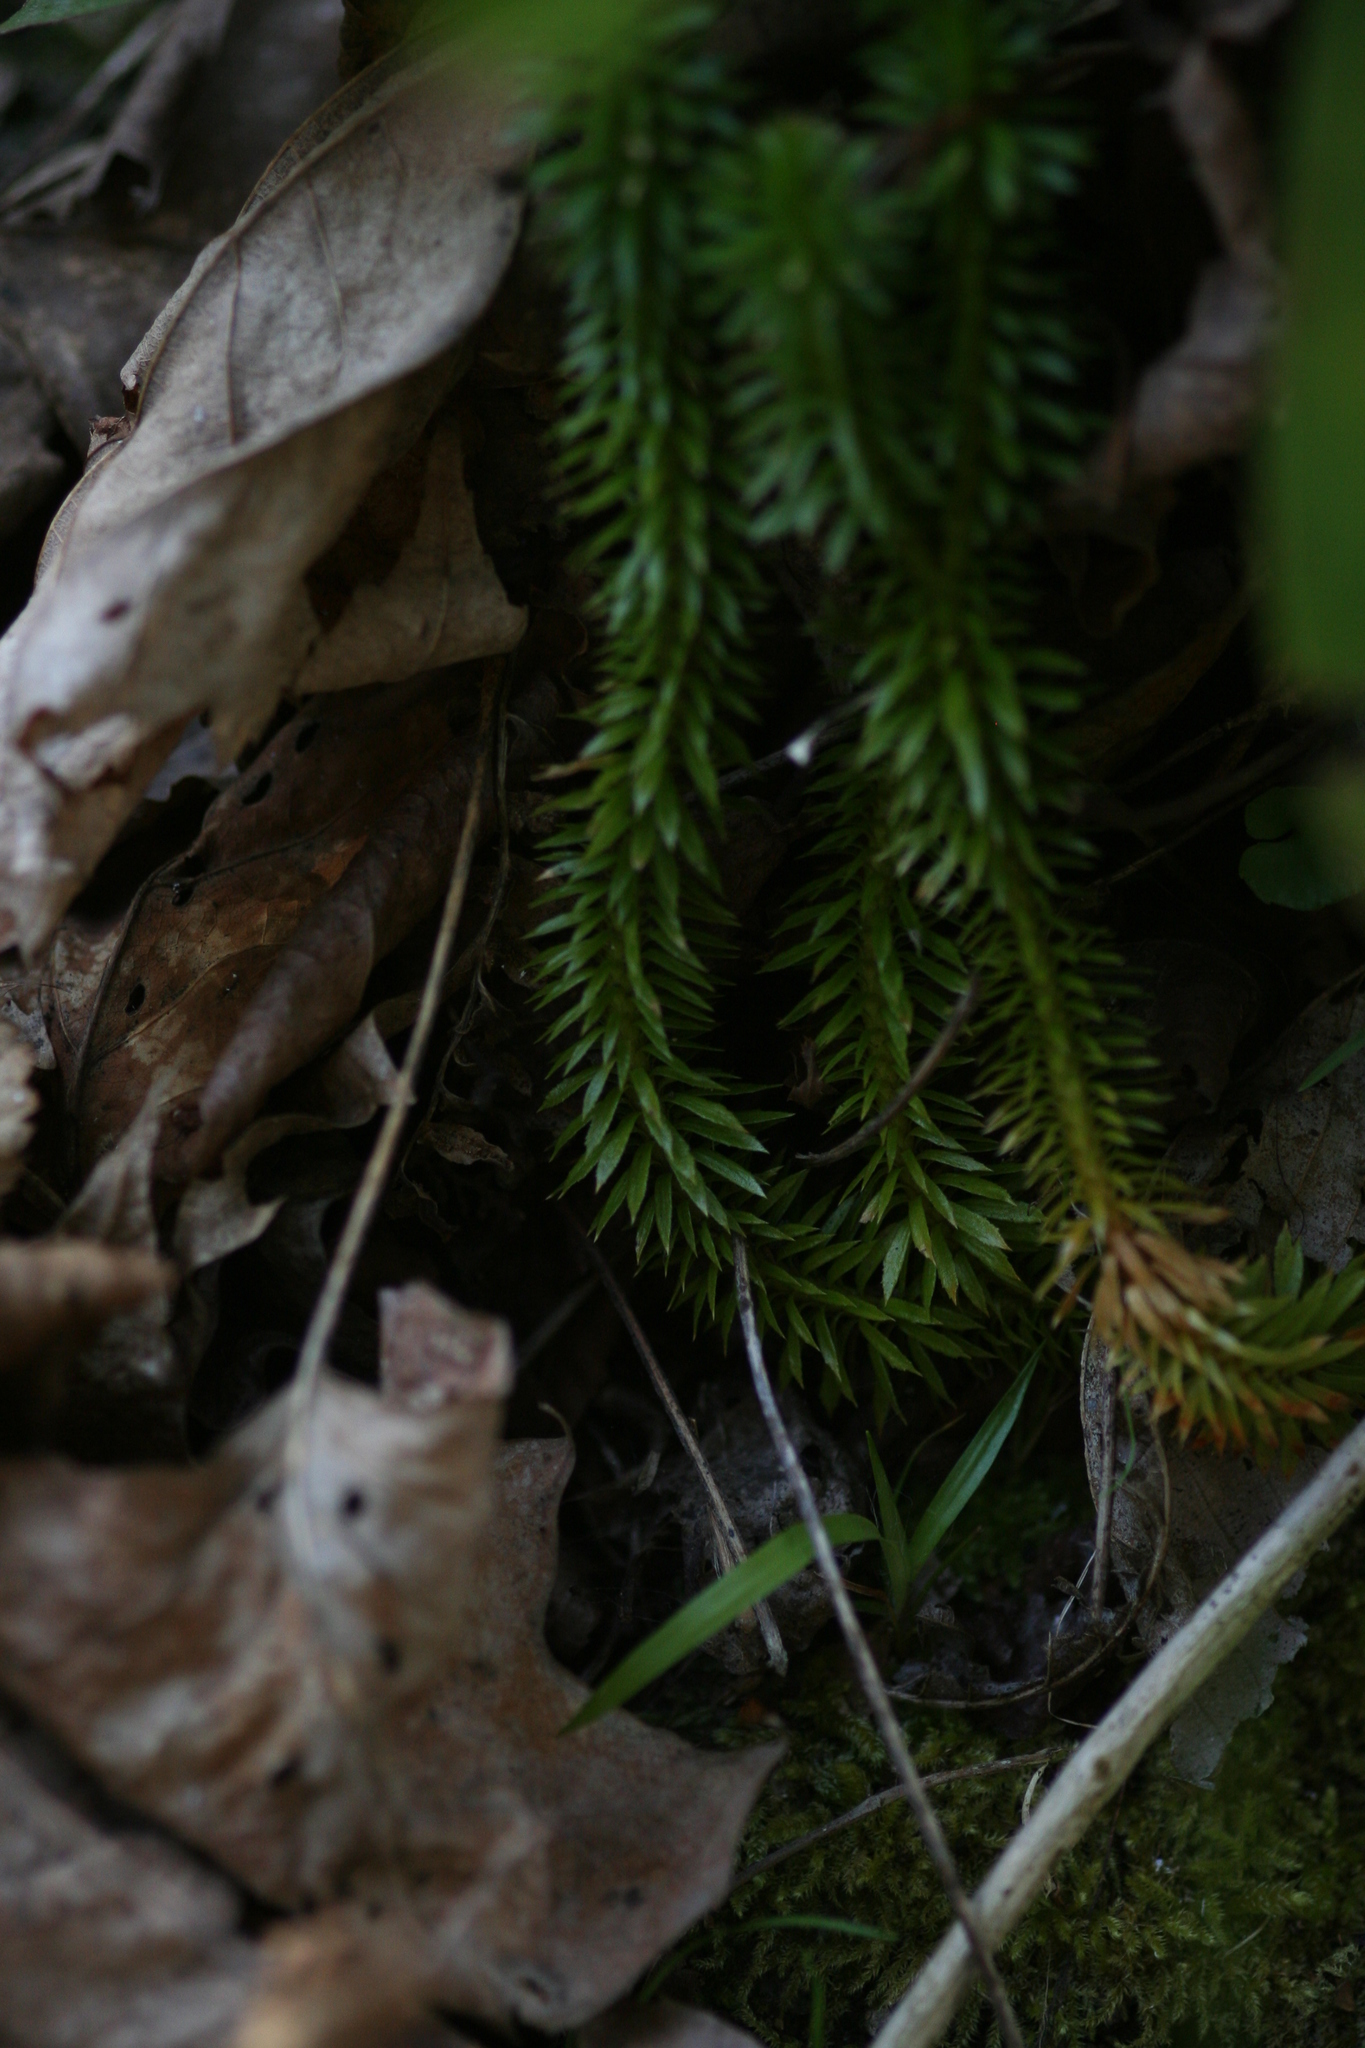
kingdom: Plantae
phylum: Tracheophyta
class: Lycopodiopsida
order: Lycopodiales
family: Lycopodiaceae
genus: Huperzia
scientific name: Huperzia lucidula
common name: Shining clubmoss
